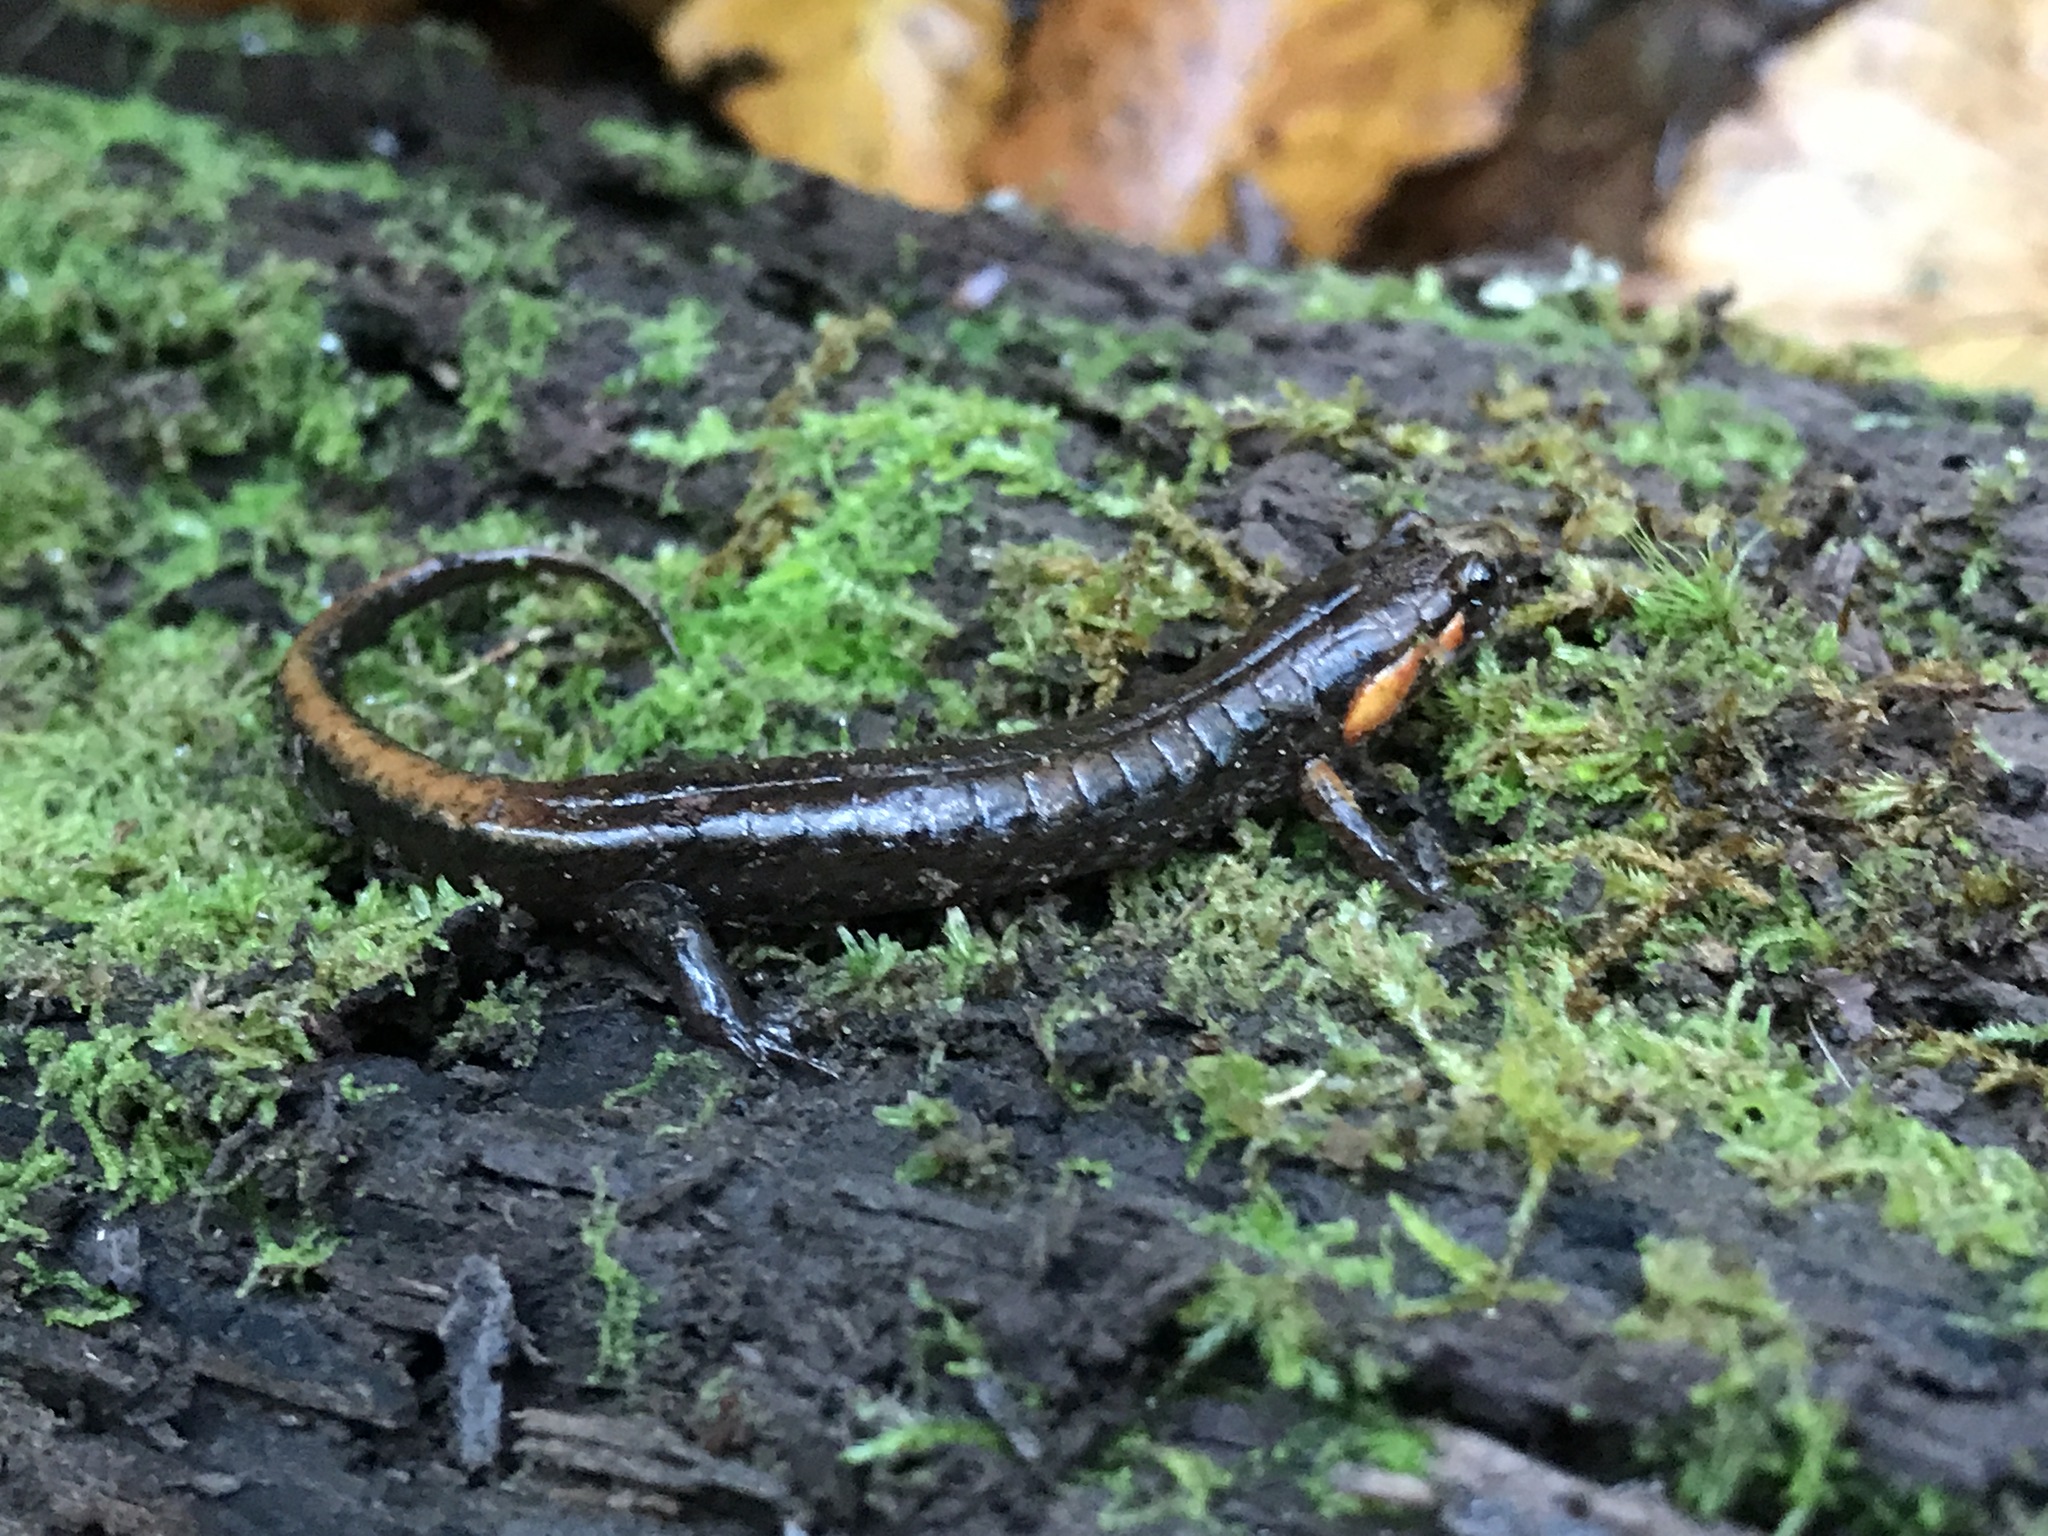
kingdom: Animalia
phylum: Chordata
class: Amphibia
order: Caudata
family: Plethodontidae
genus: Desmognathus
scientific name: Desmognathus ocoee
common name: Ocoee salamander
